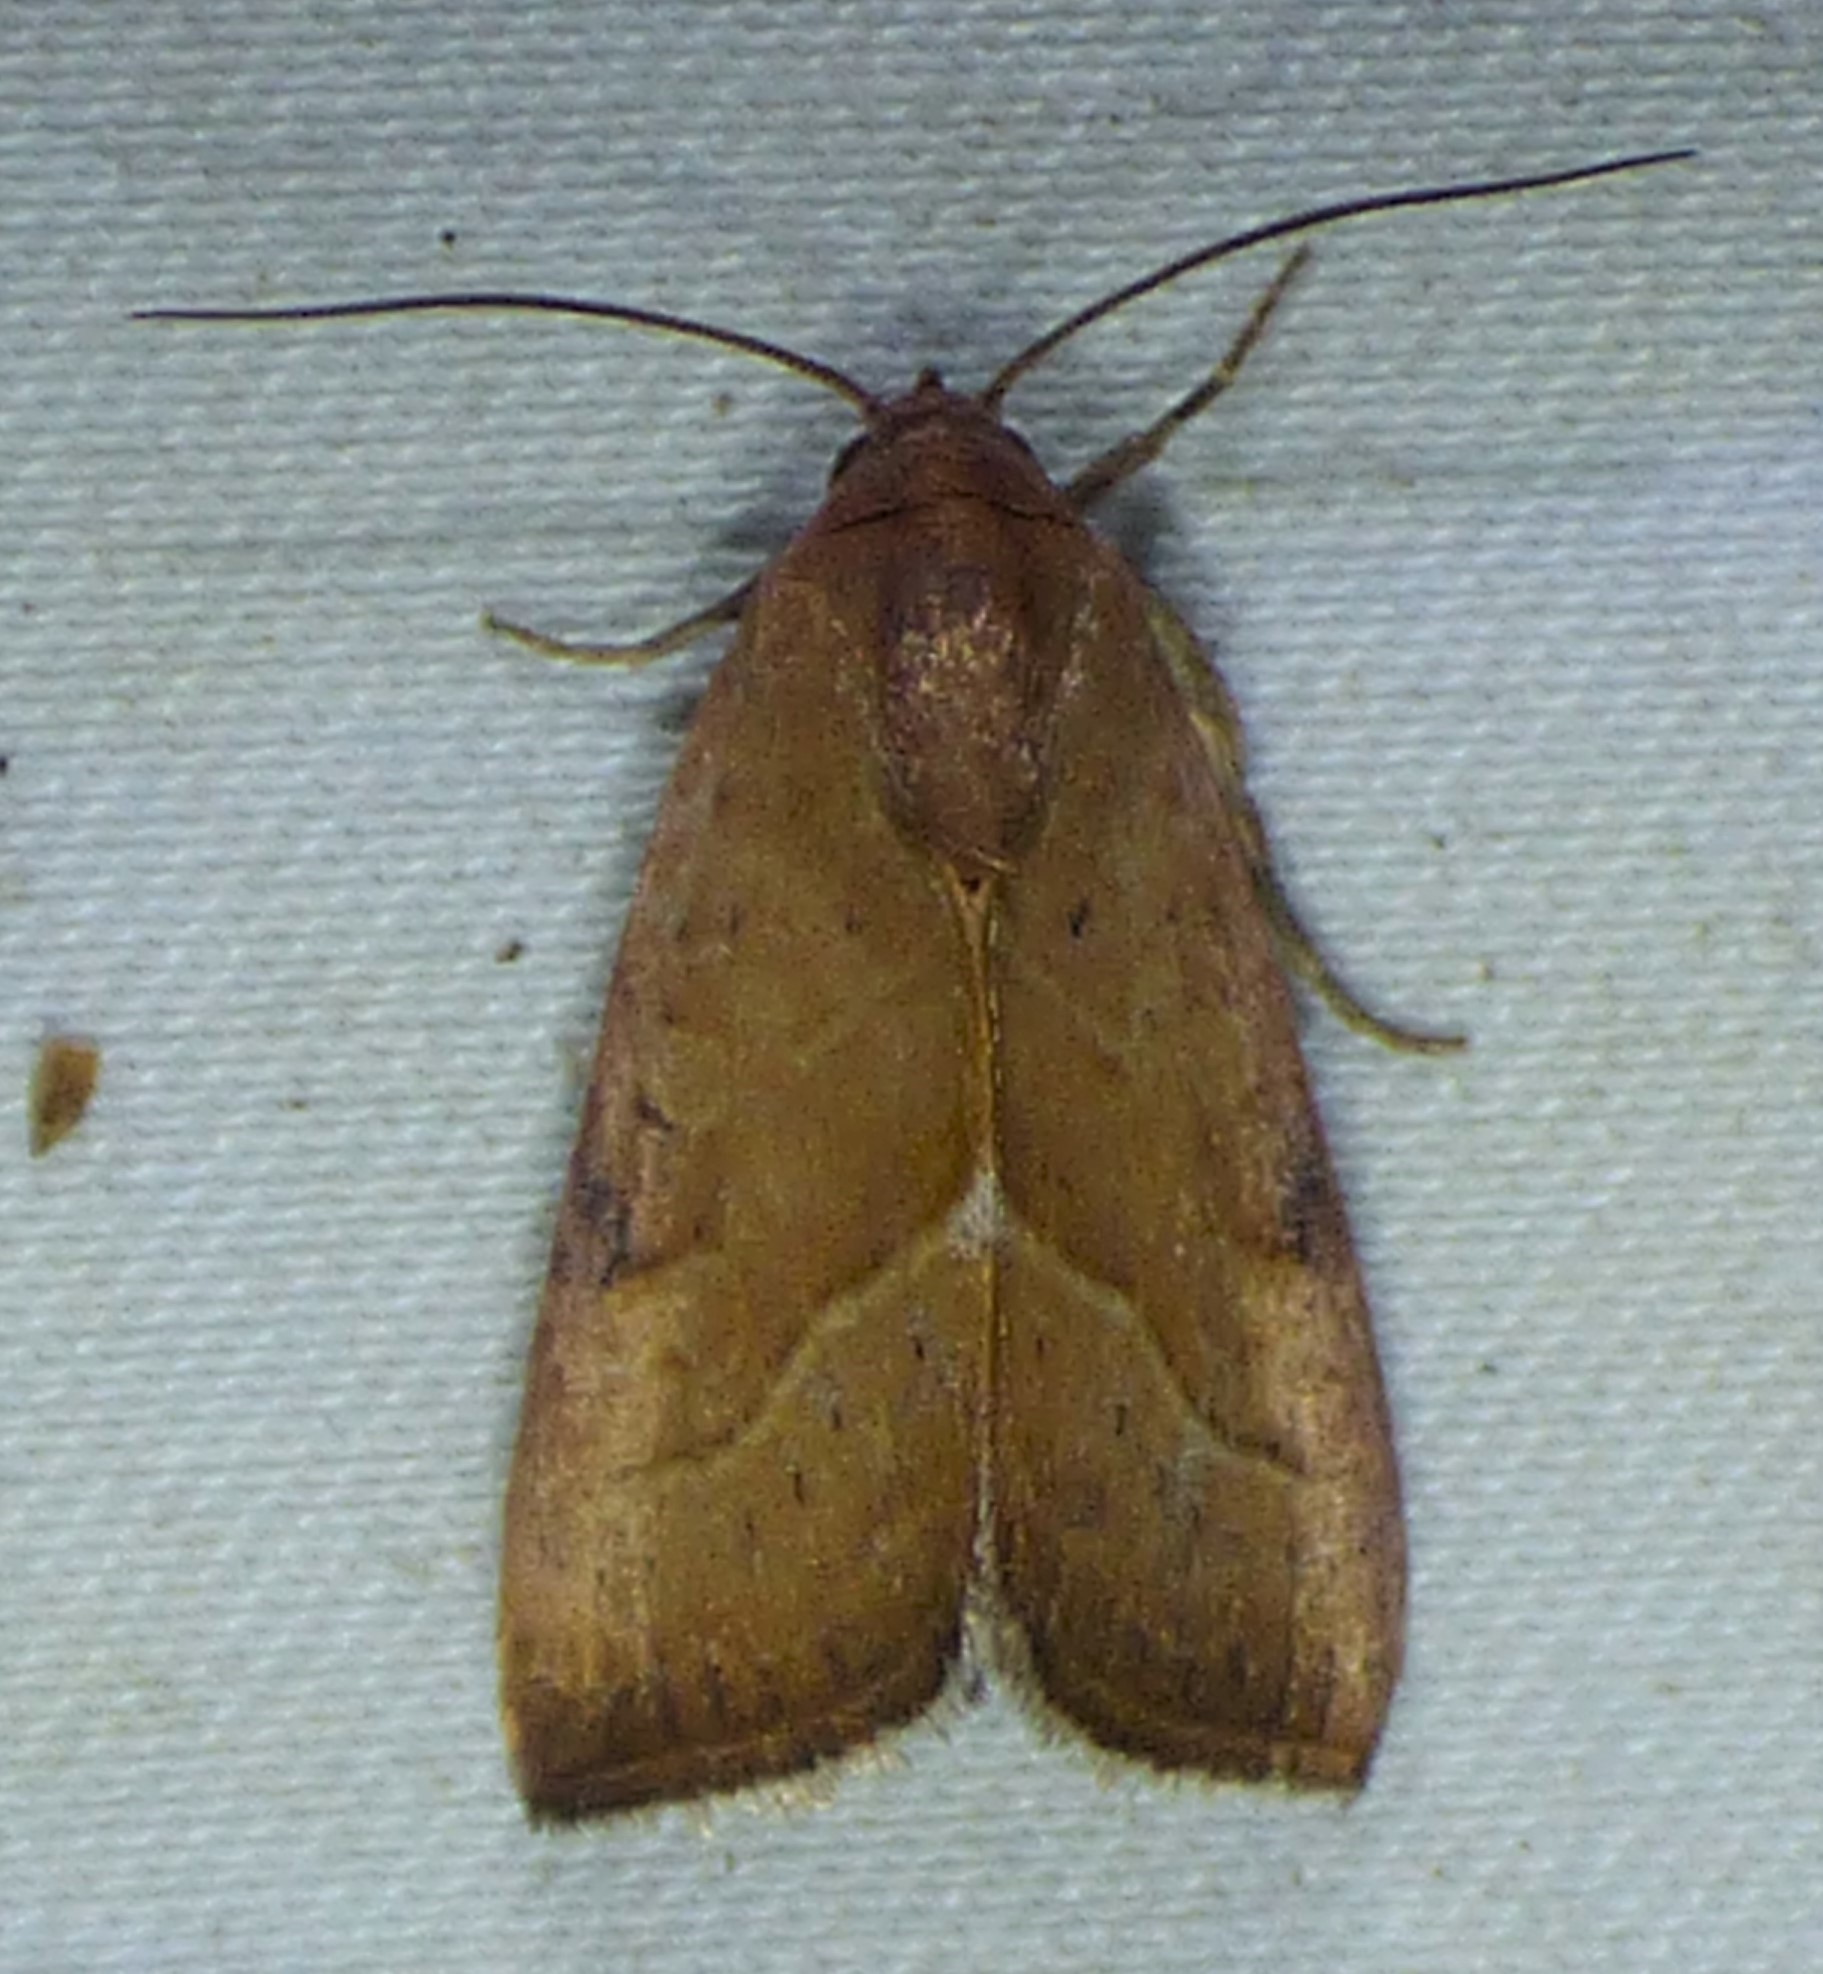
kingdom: Animalia
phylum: Arthropoda
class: Insecta
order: Lepidoptera
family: Noctuidae
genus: Galgula
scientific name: Galgula partita
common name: Wedgeling
